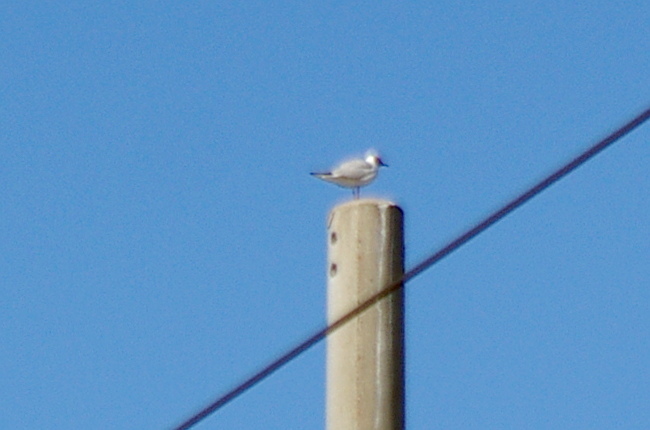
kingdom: Animalia
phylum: Chordata
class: Aves
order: Charadriiformes
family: Laridae
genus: Chroicocephalus
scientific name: Chroicocephalus ridibundus
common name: Black-headed gull
